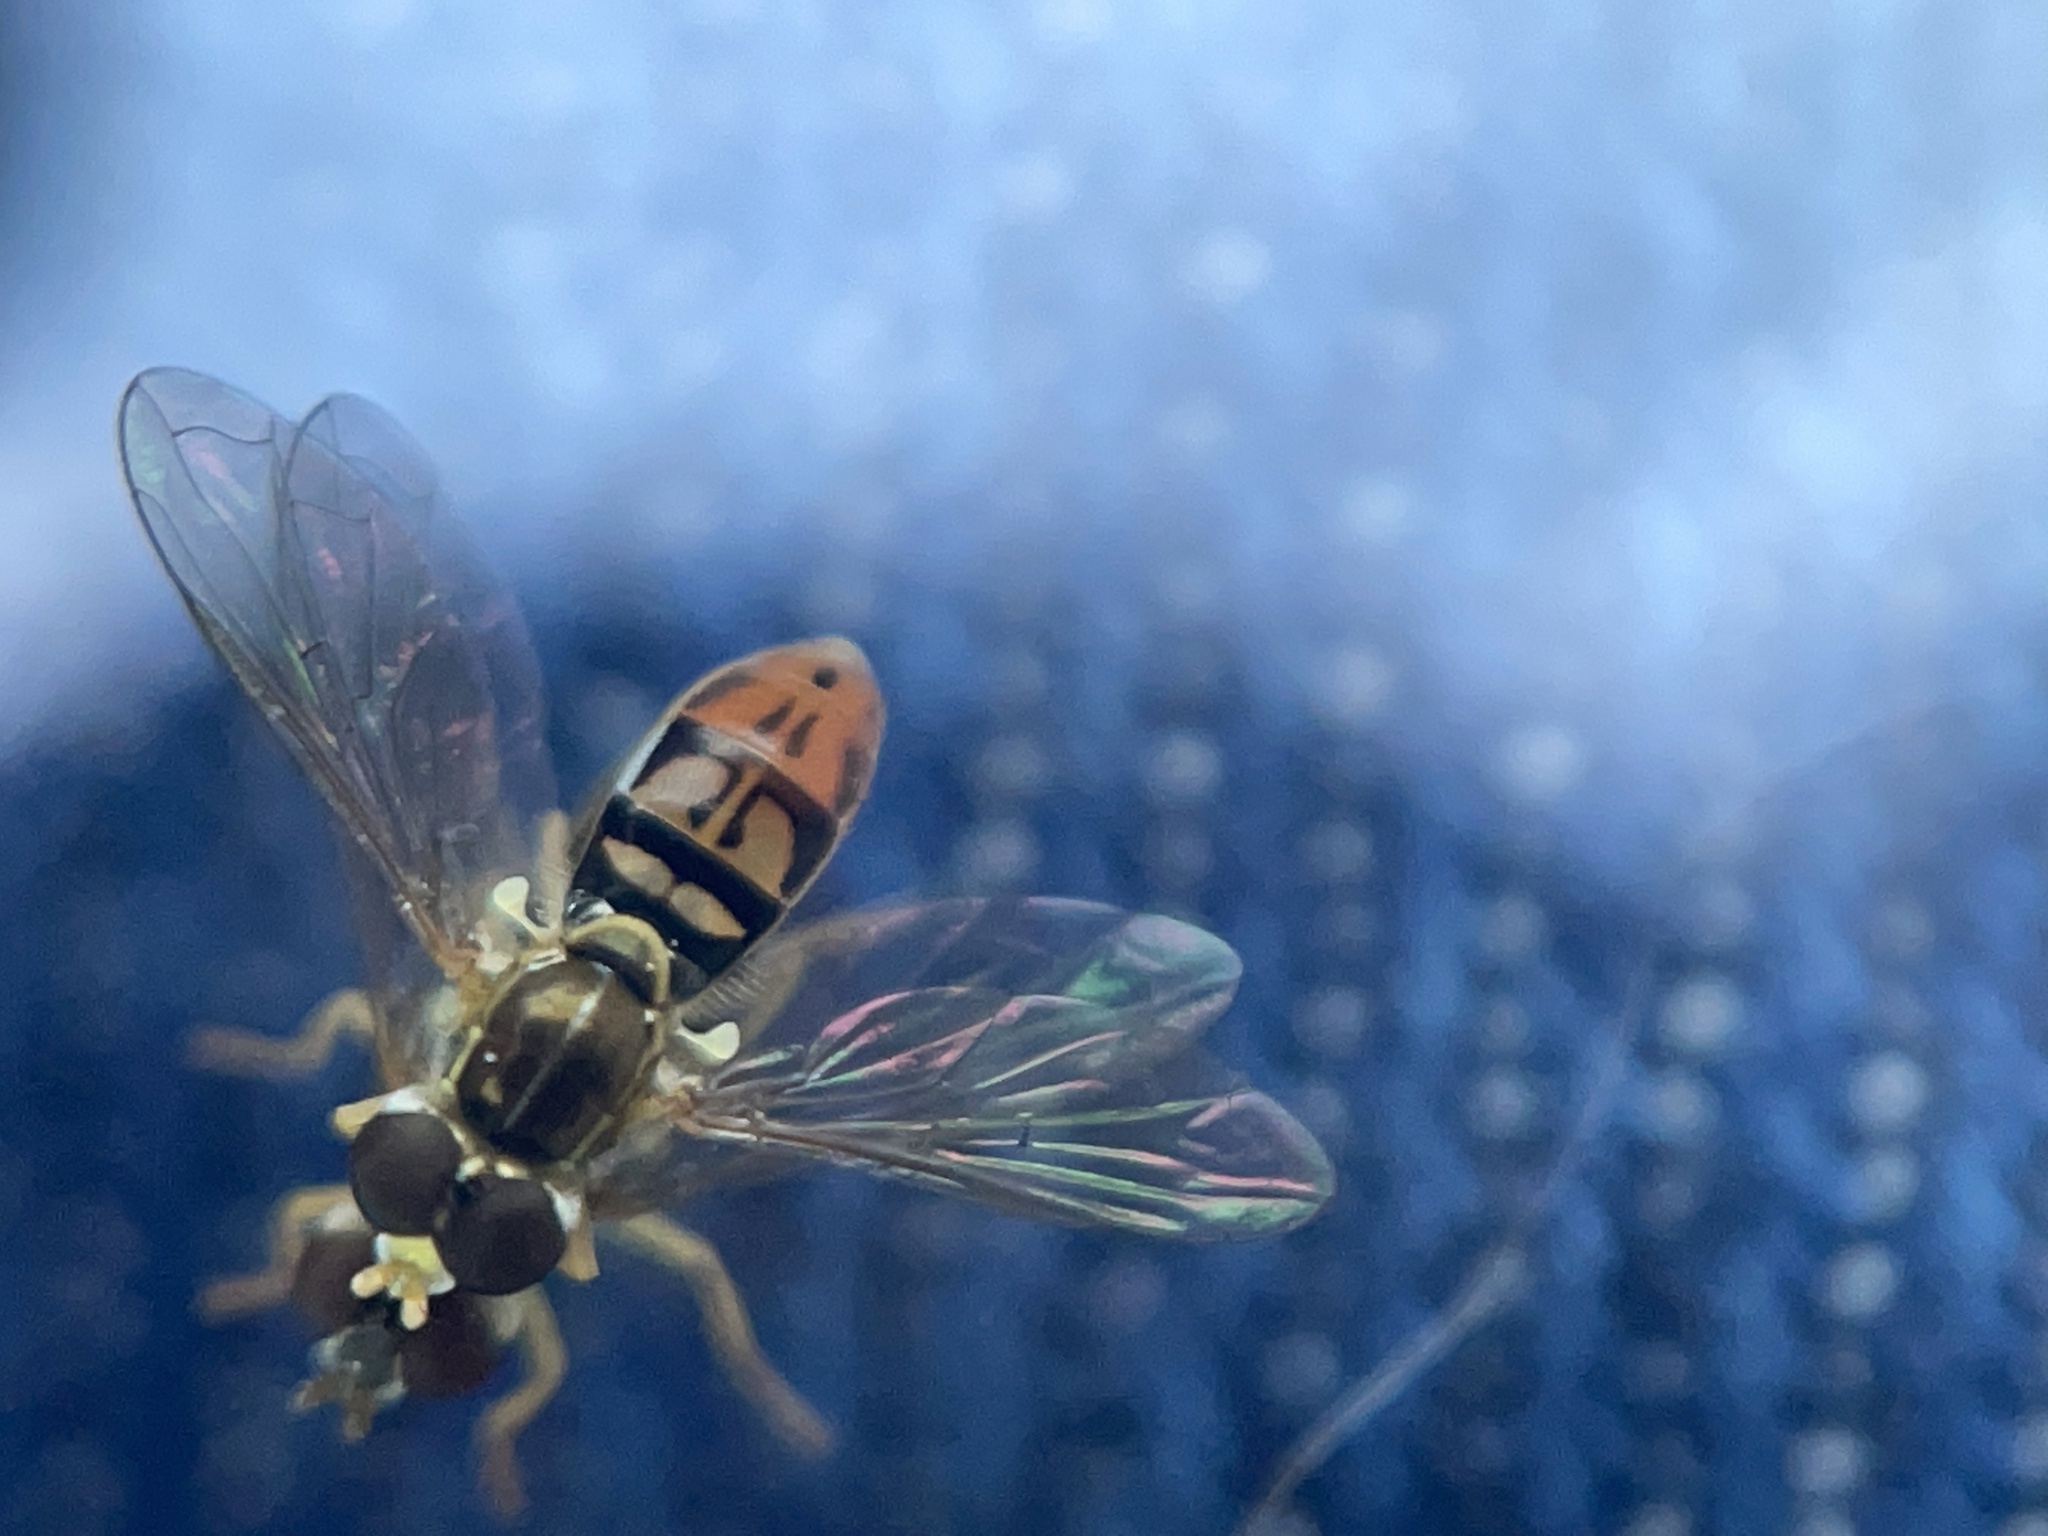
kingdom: Animalia
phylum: Arthropoda
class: Insecta
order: Diptera
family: Syrphidae
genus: Toxomerus
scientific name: Toxomerus marginatus
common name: Syrphid fly
